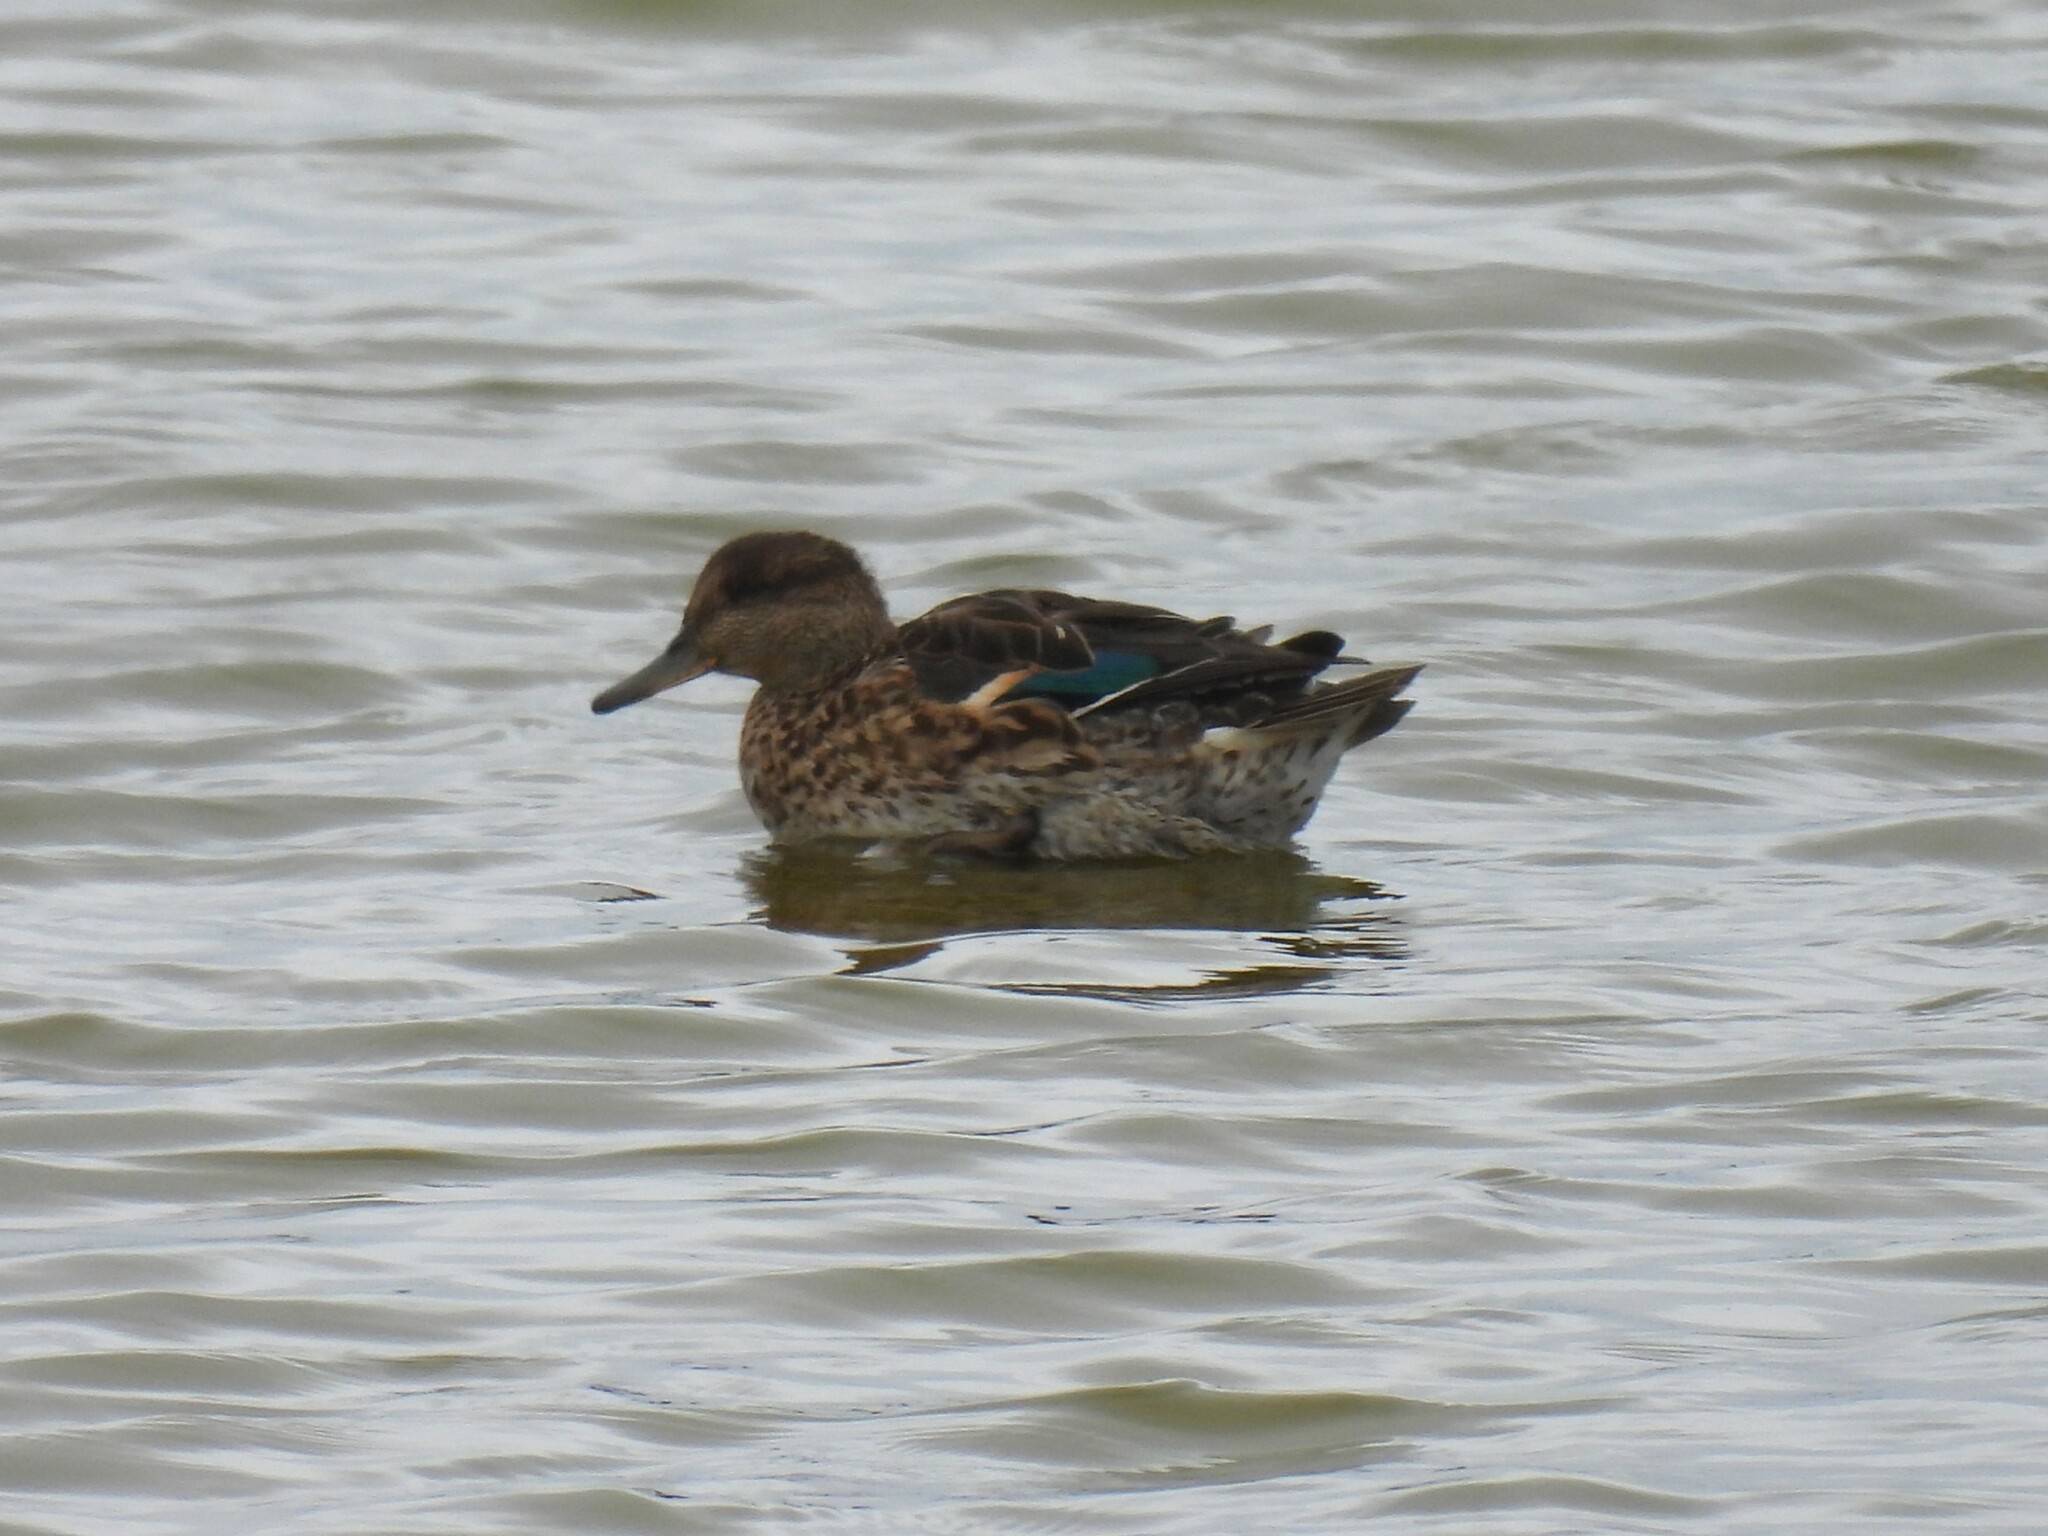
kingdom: Animalia
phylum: Chordata
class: Aves
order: Anseriformes
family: Anatidae
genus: Anas
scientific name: Anas crecca
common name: Eurasian teal
